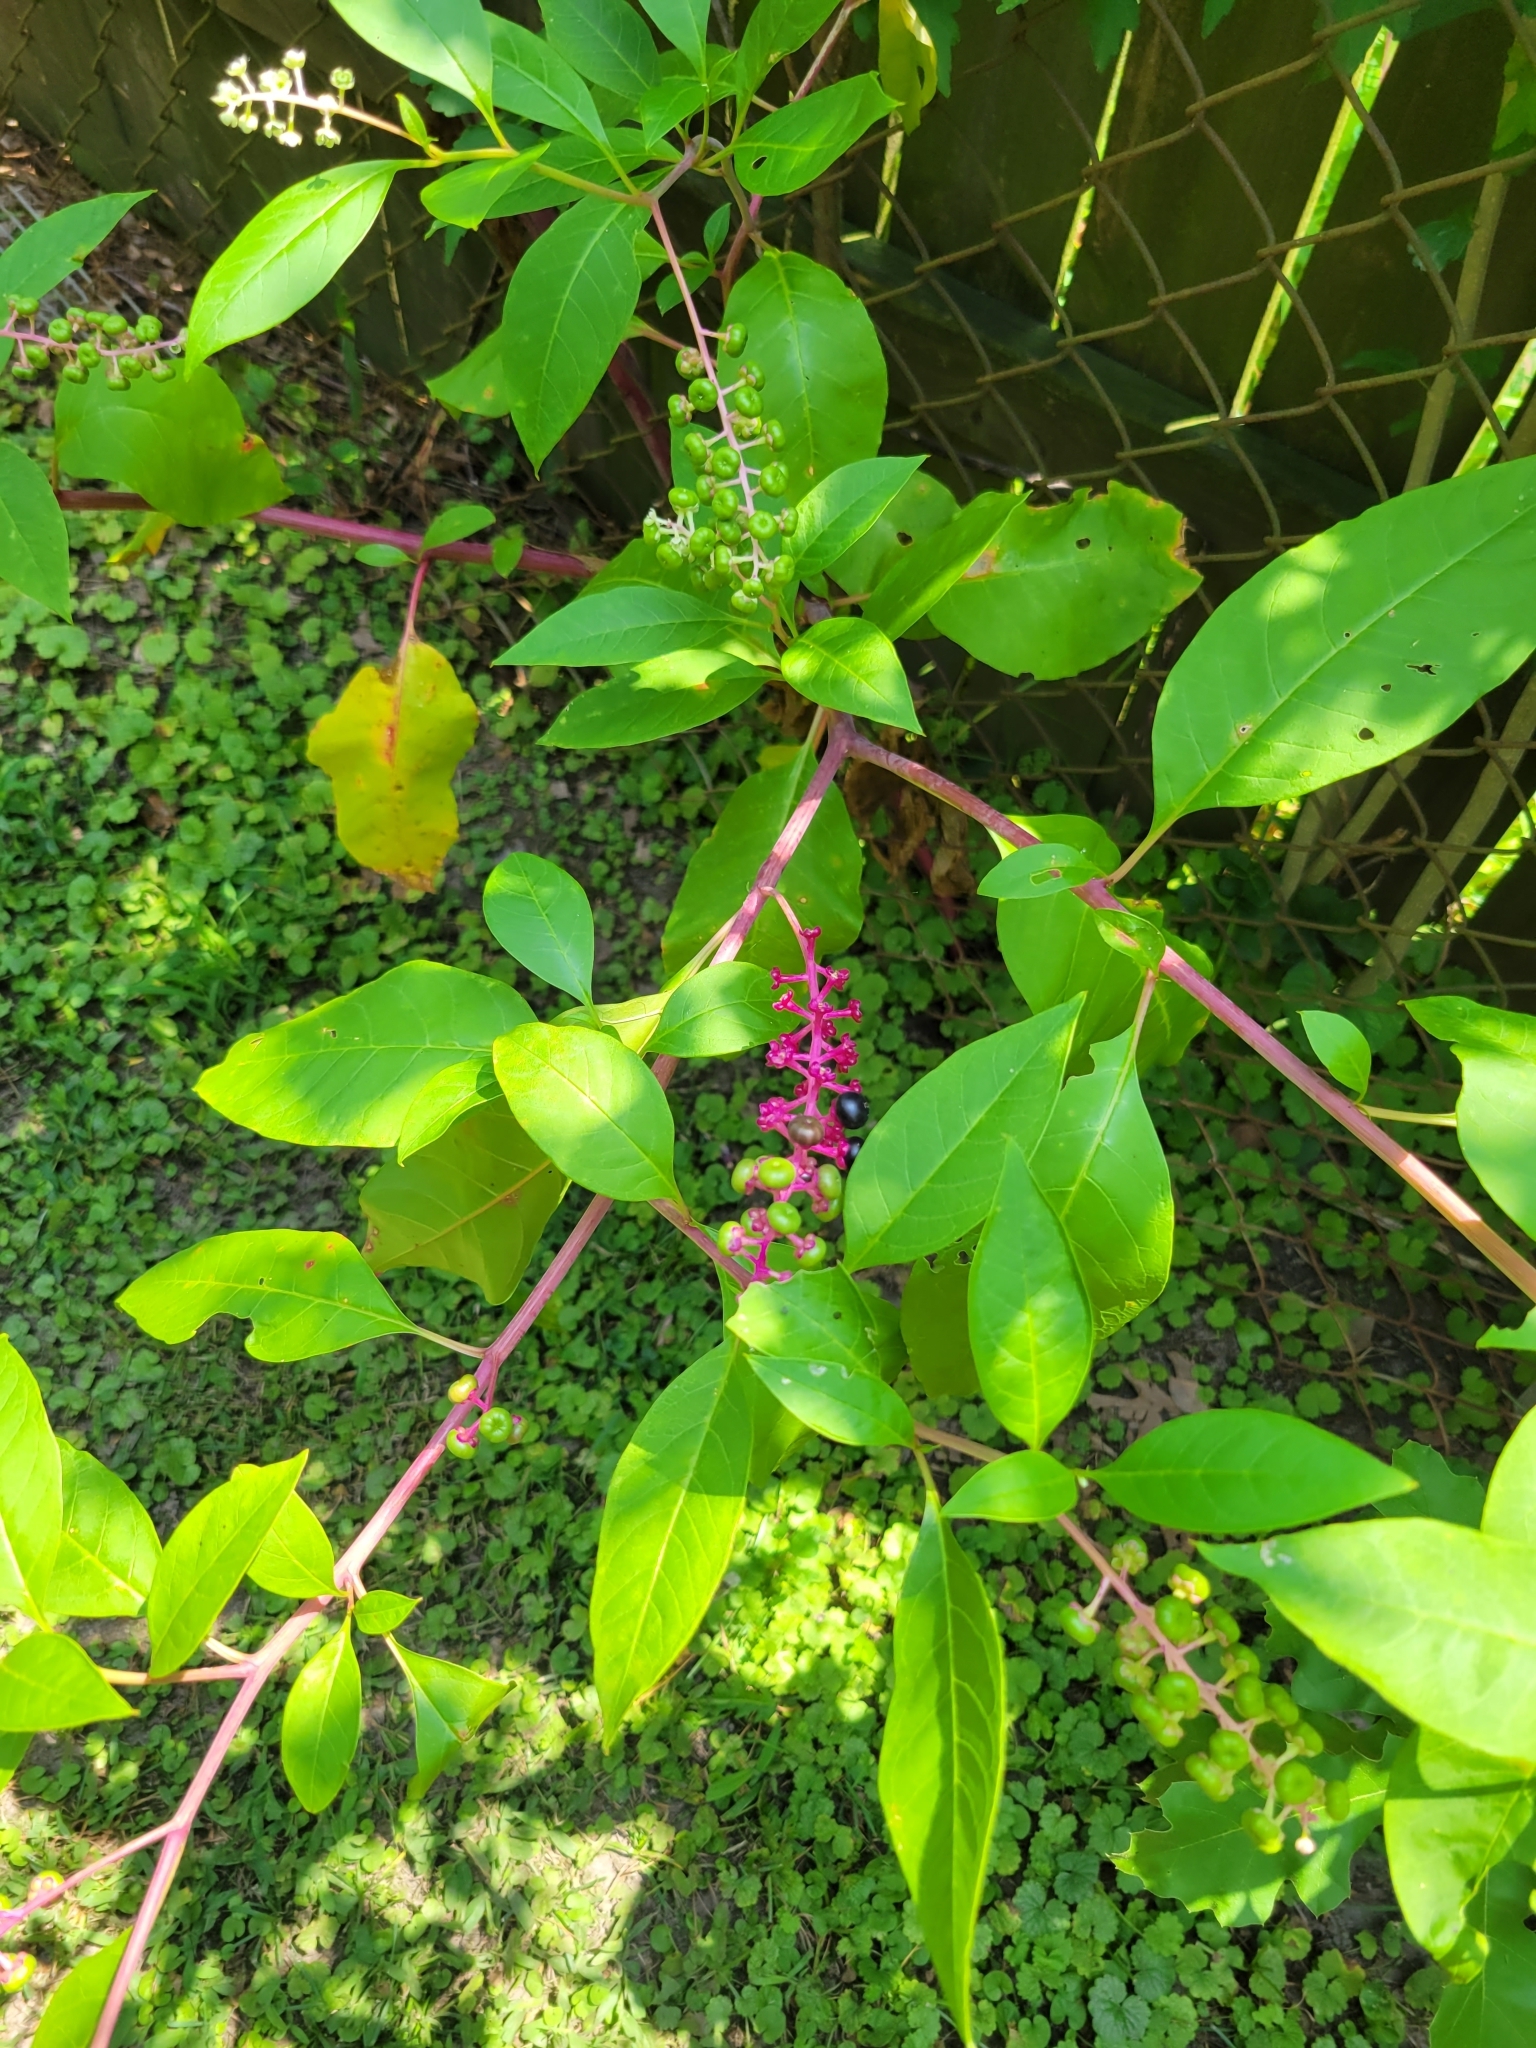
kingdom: Plantae
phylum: Tracheophyta
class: Magnoliopsida
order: Caryophyllales
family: Phytolaccaceae
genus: Phytolacca
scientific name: Phytolacca americana
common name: American pokeweed
